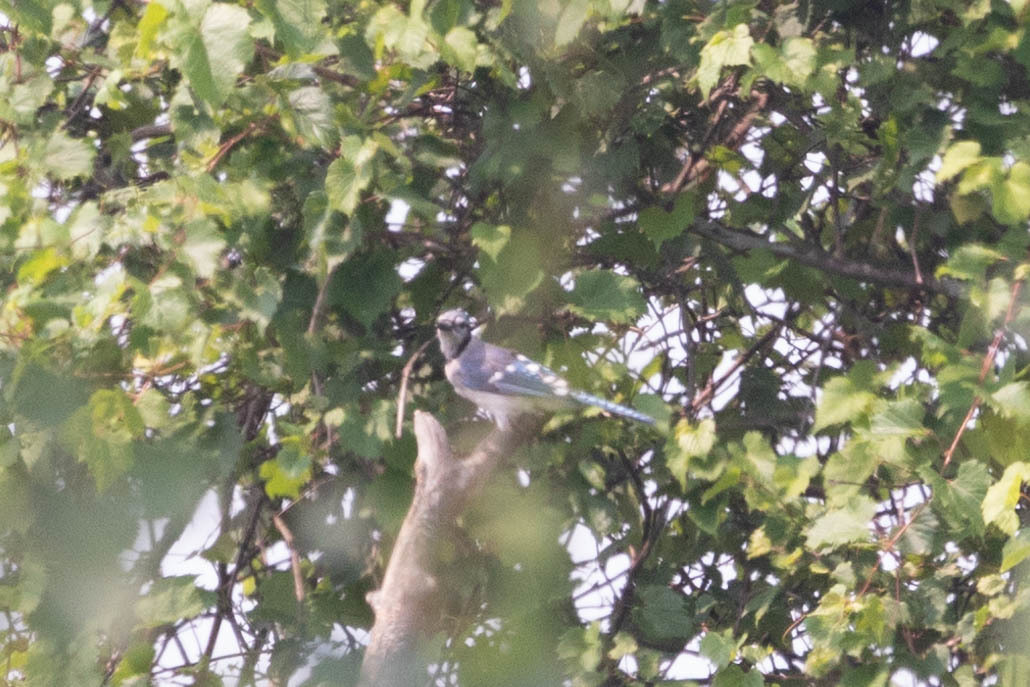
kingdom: Animalia
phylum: Chordata
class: Aves
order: Passeriformes
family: Corvidae
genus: Cyanocitta
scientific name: Cyanocitta cristata
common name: Blue jay
